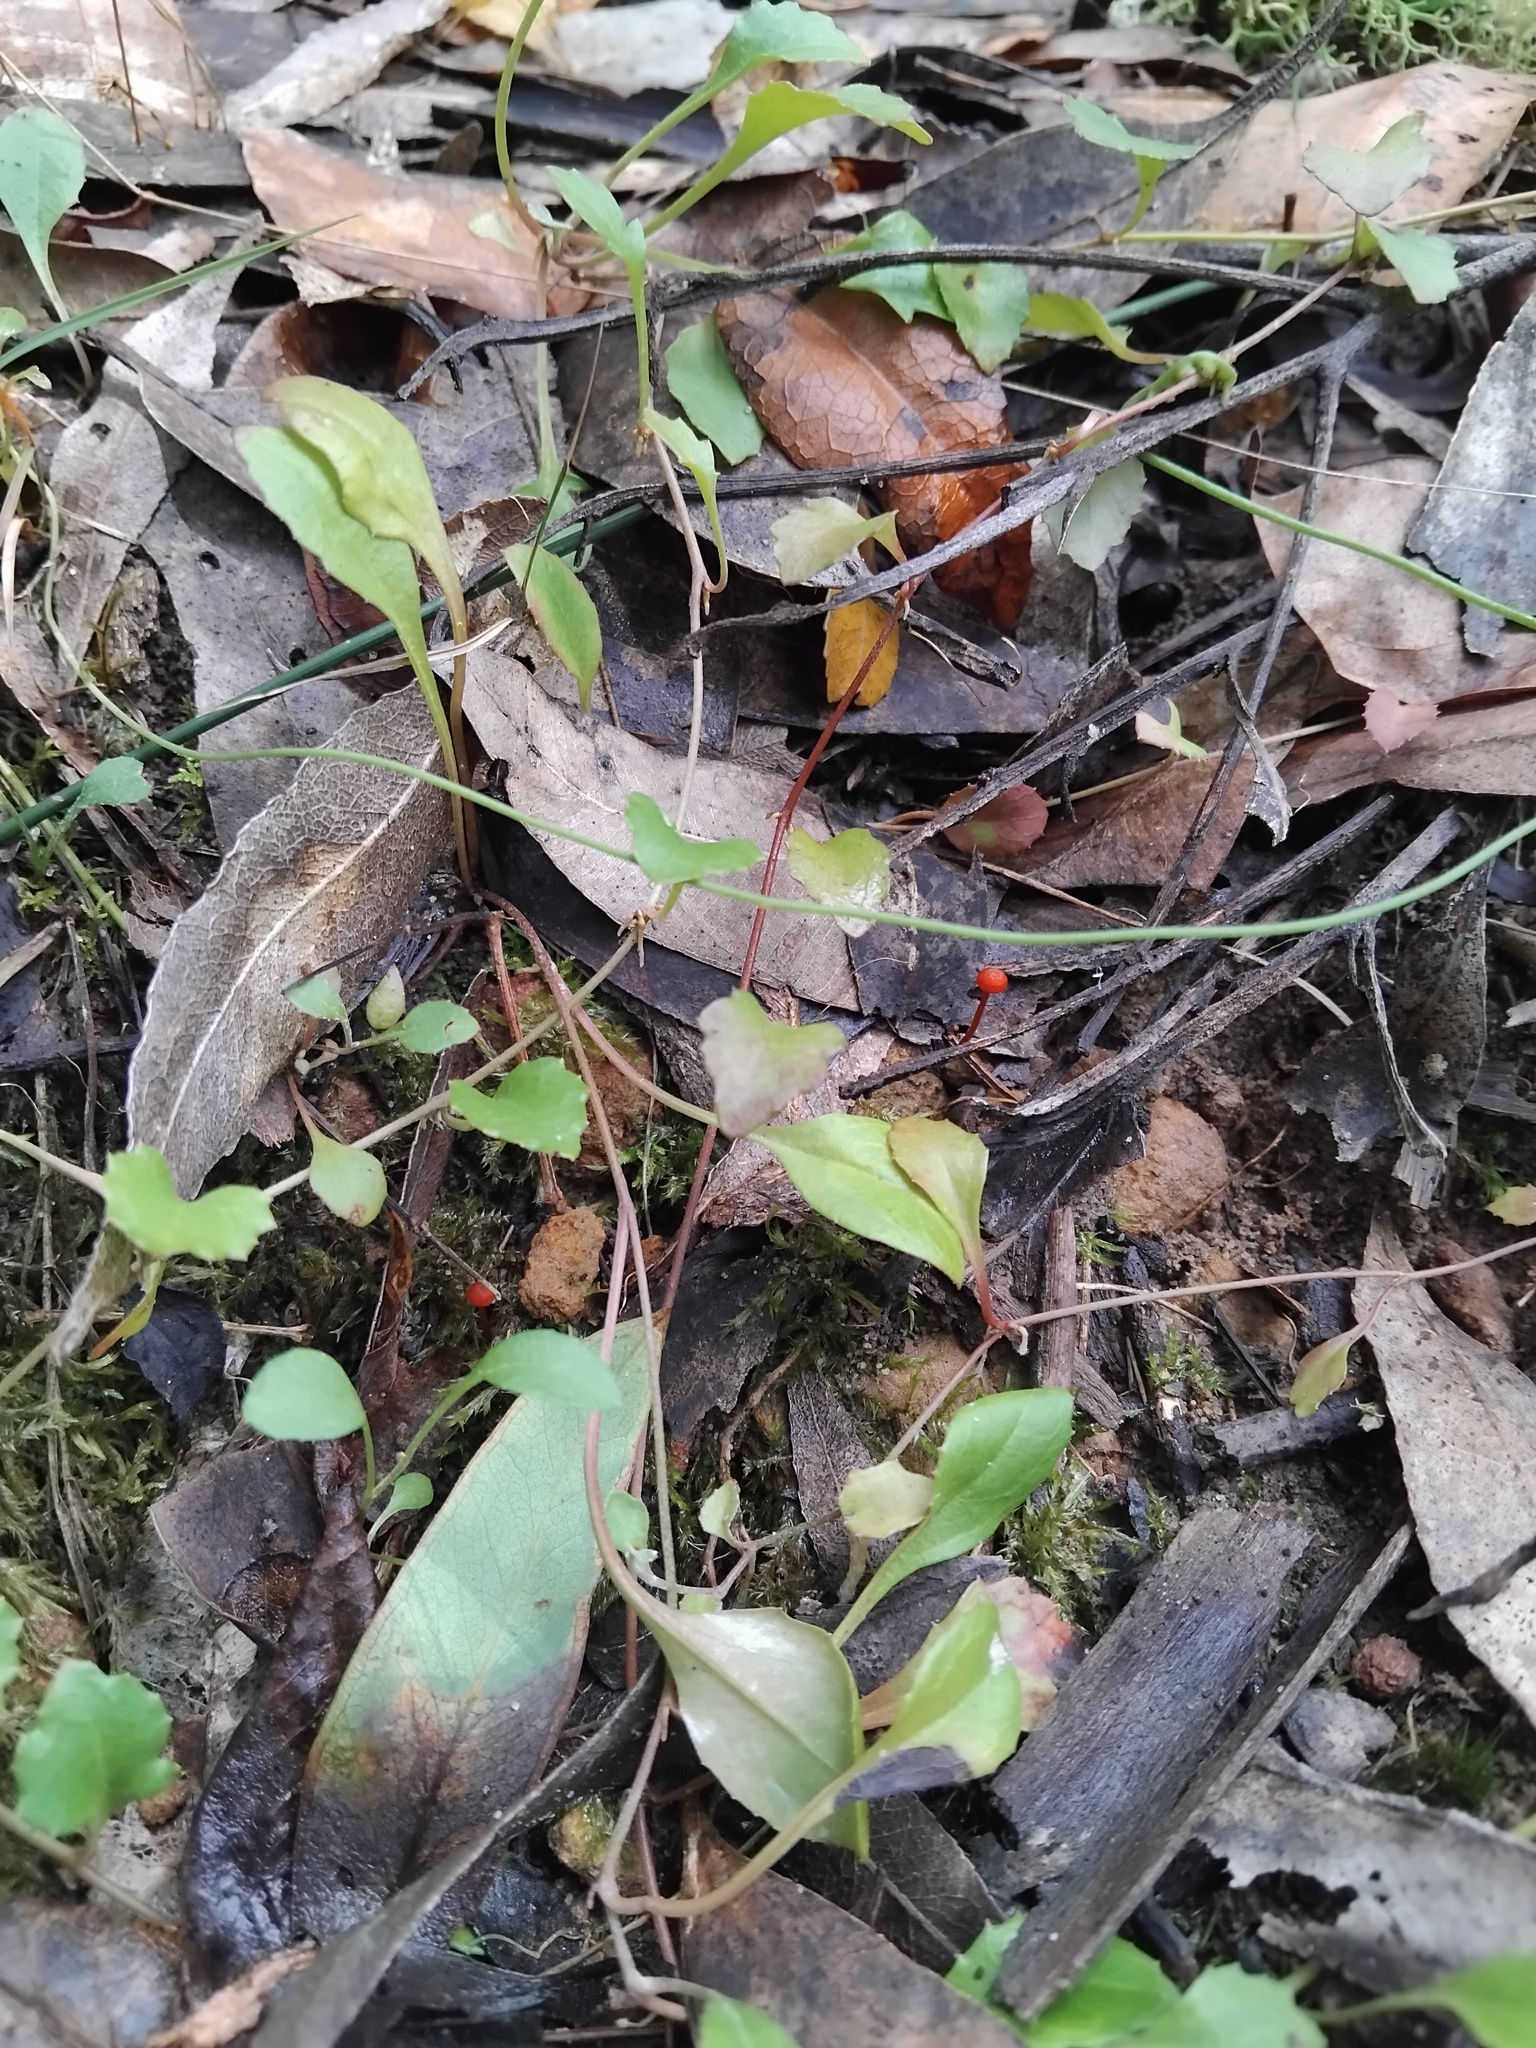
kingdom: Fungi
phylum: Basidiomycota
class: Agaricomycetes
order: Agaricales
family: Mycenaceae
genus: Cruentomycena
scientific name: Cruentomycena viscidocruenta
